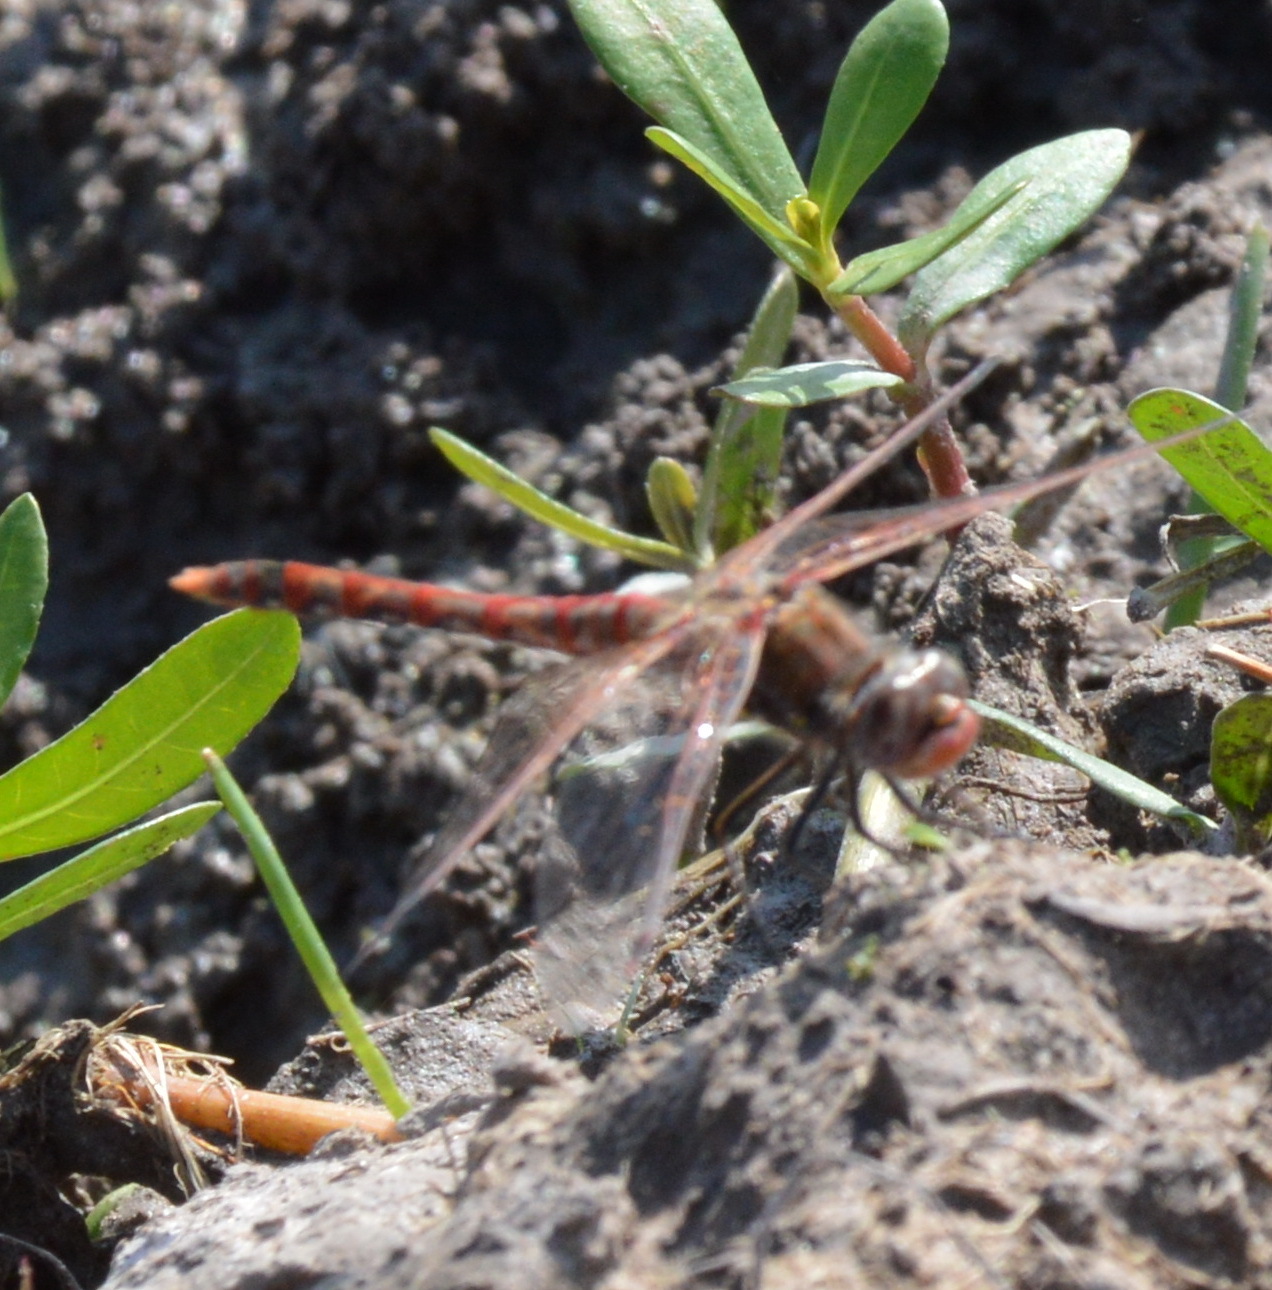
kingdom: Animalia
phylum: Arthropoda
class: Insecta
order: Odonata
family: Libellulidae
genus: Sympetrum
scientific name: Sympetrum corruptum
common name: Variegated meadowhawk
